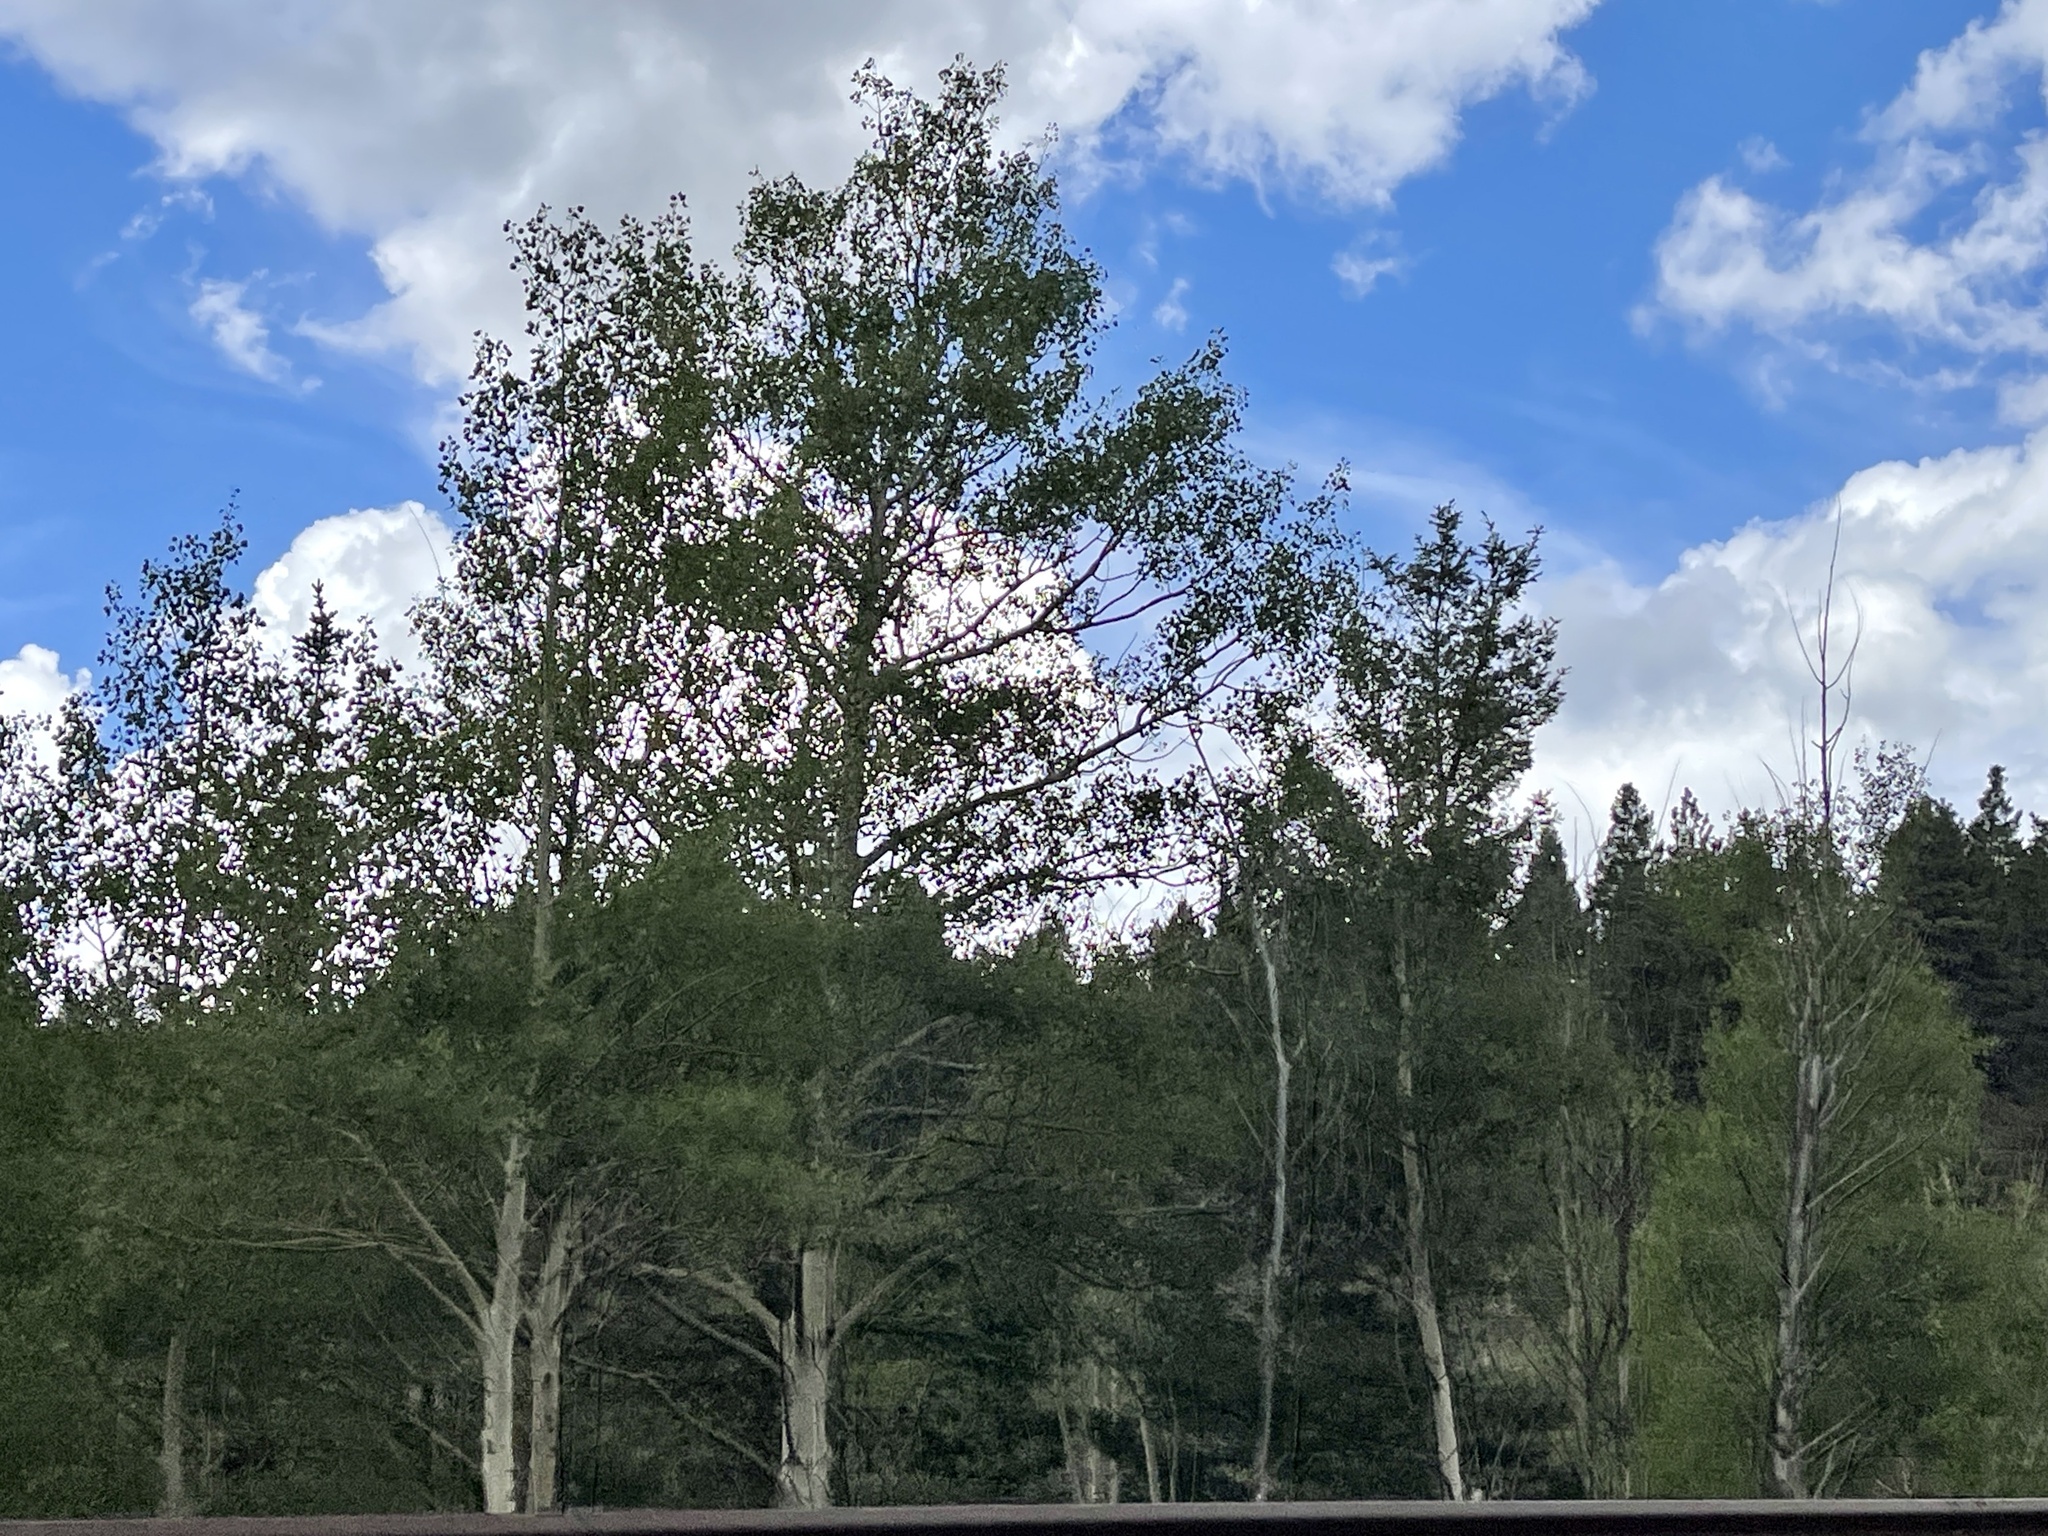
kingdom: Plantae
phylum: Tracheophyta
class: Magnoliopsida
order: Malpighiales
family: Salicaceae
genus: Populus
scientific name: Populus tremuloides
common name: Quaking aspen
